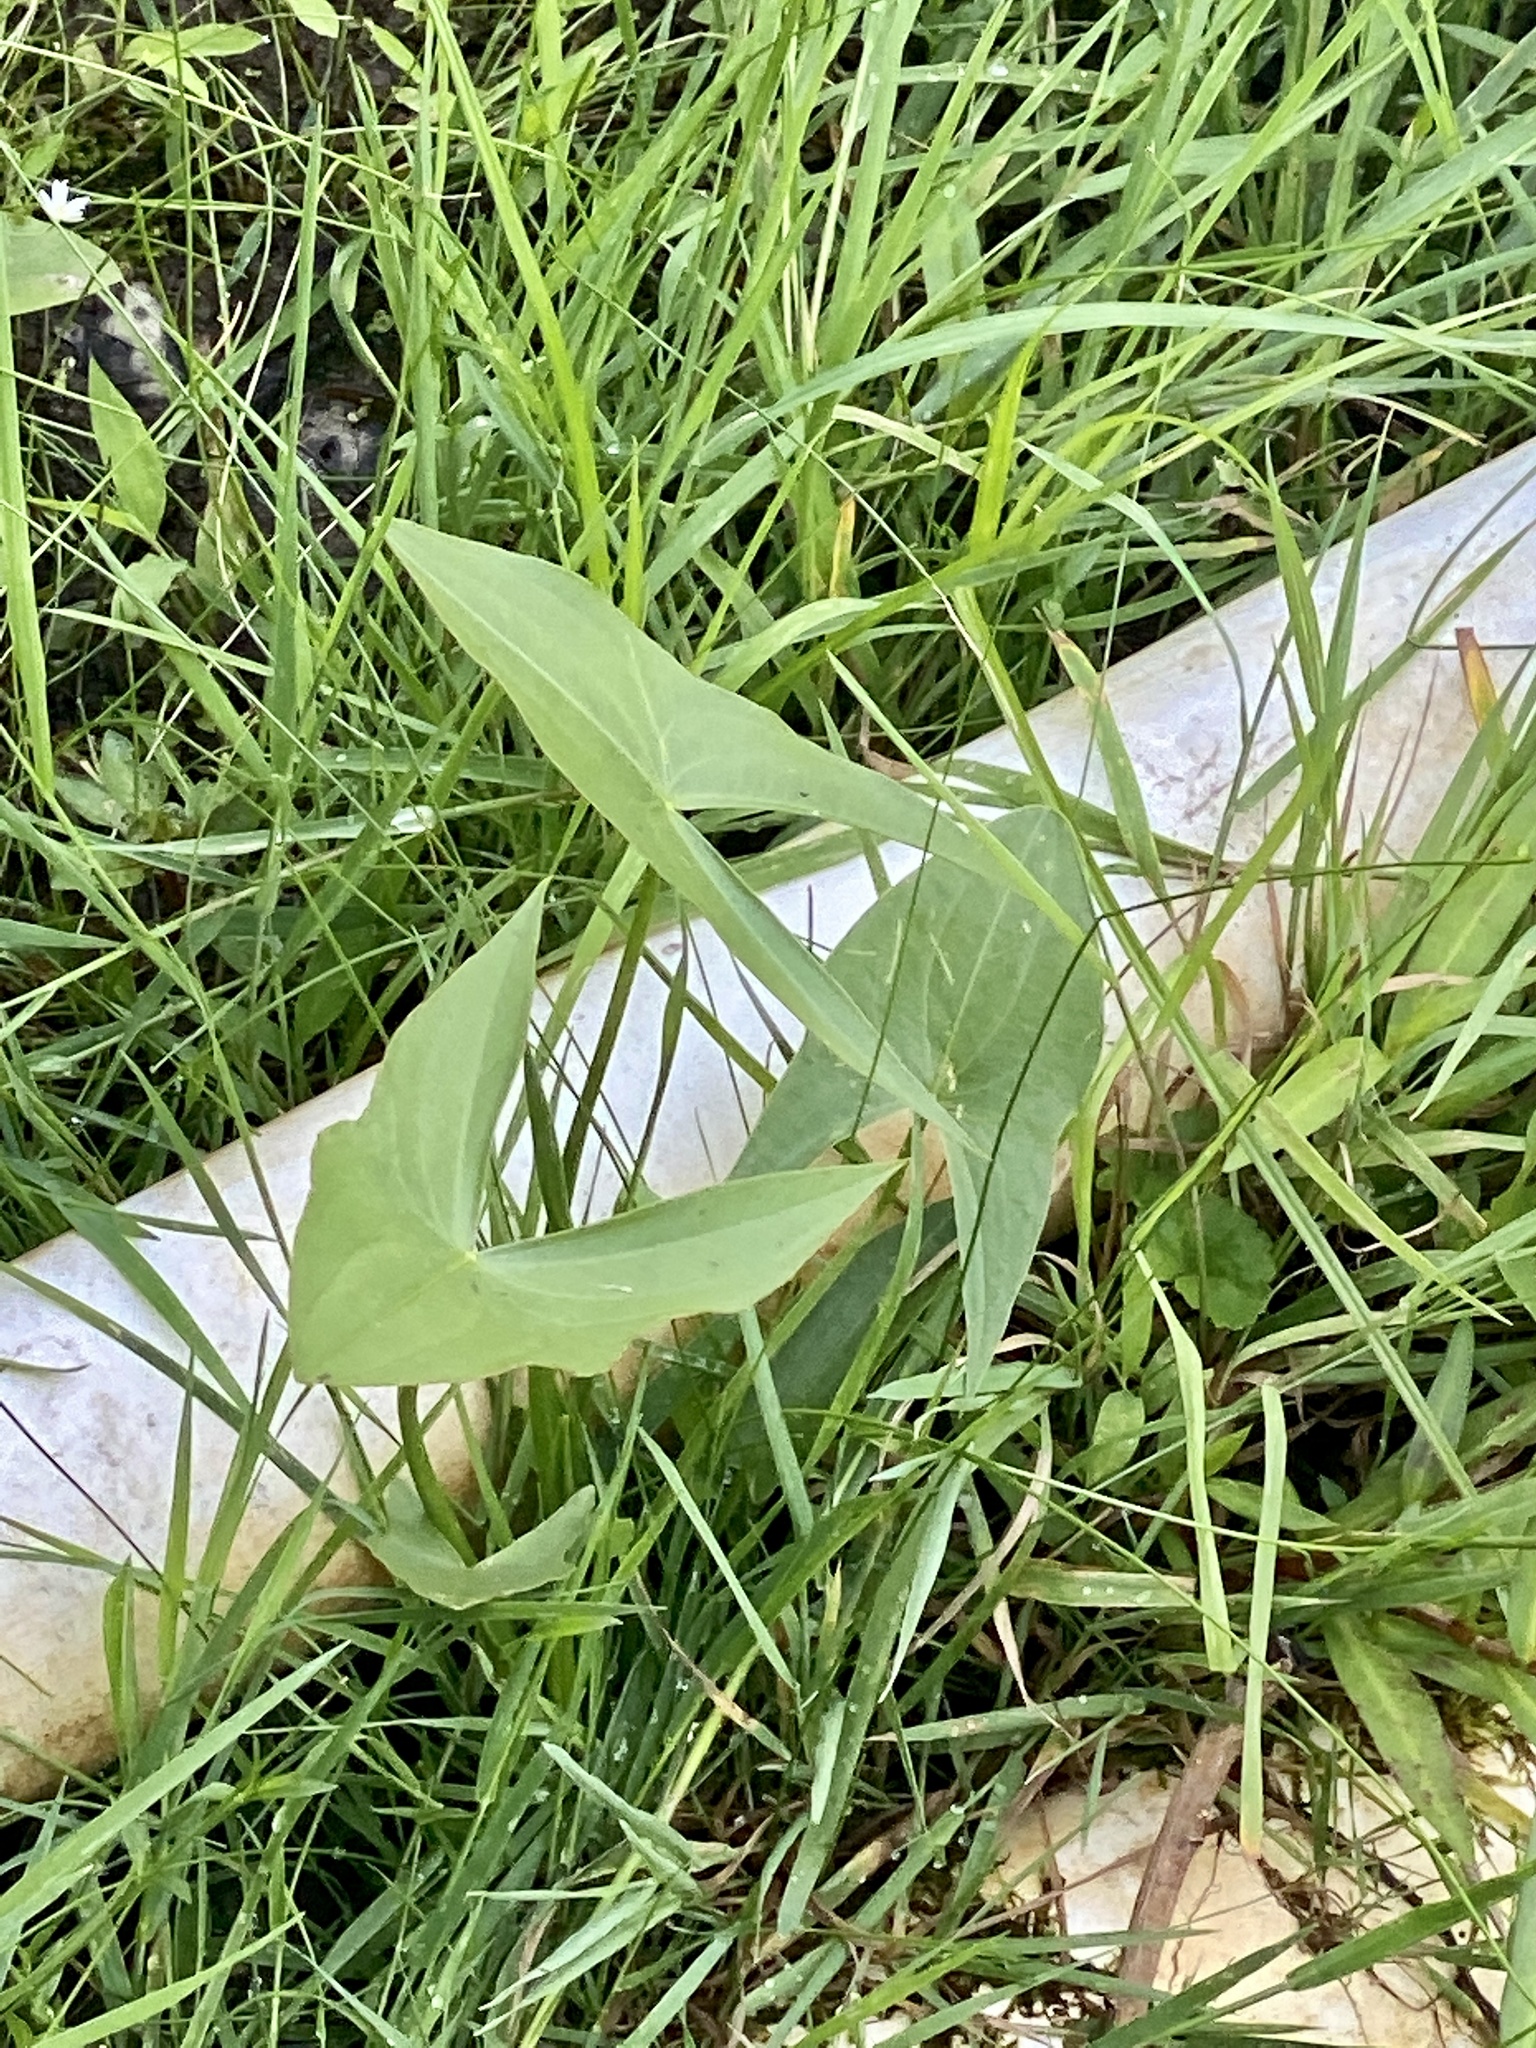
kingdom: Plantae
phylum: Tracheophyta
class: Liliopsida
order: Alismatales
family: Alismataceae
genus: Sagittaria
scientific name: Sagittaria latifolia
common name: Duck-potato
